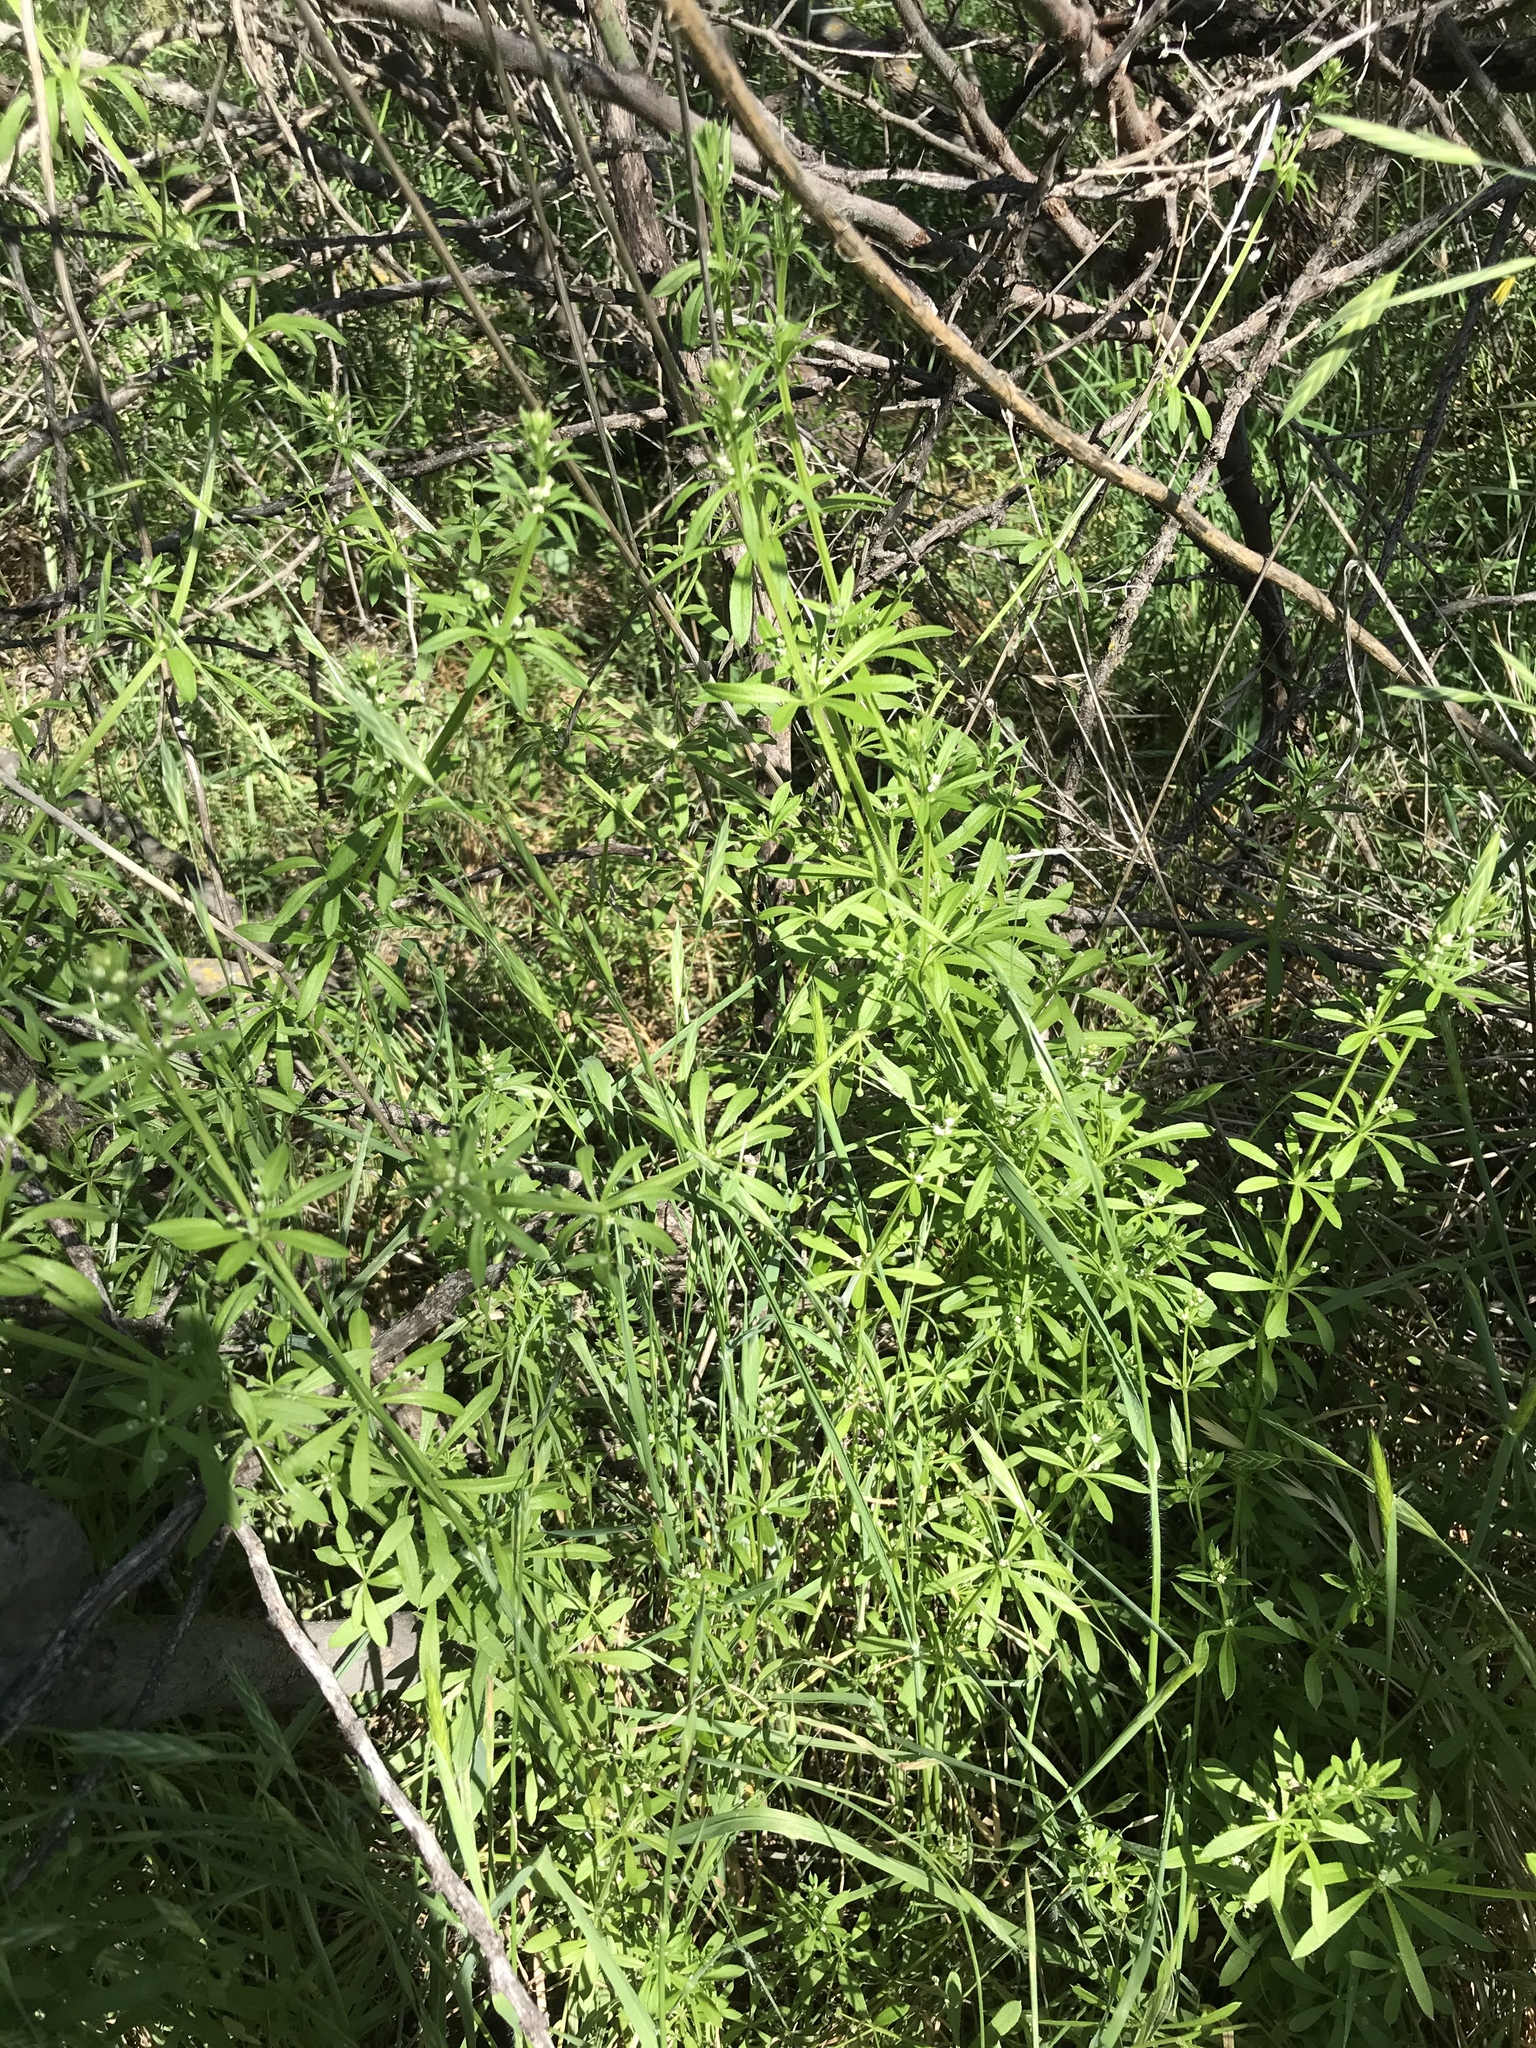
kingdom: Plantae
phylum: Tracheophyta
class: Magnoliopsida
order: Gentianales
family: Rubiaceae
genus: Galium
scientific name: Galium aparine
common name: Cleavers
